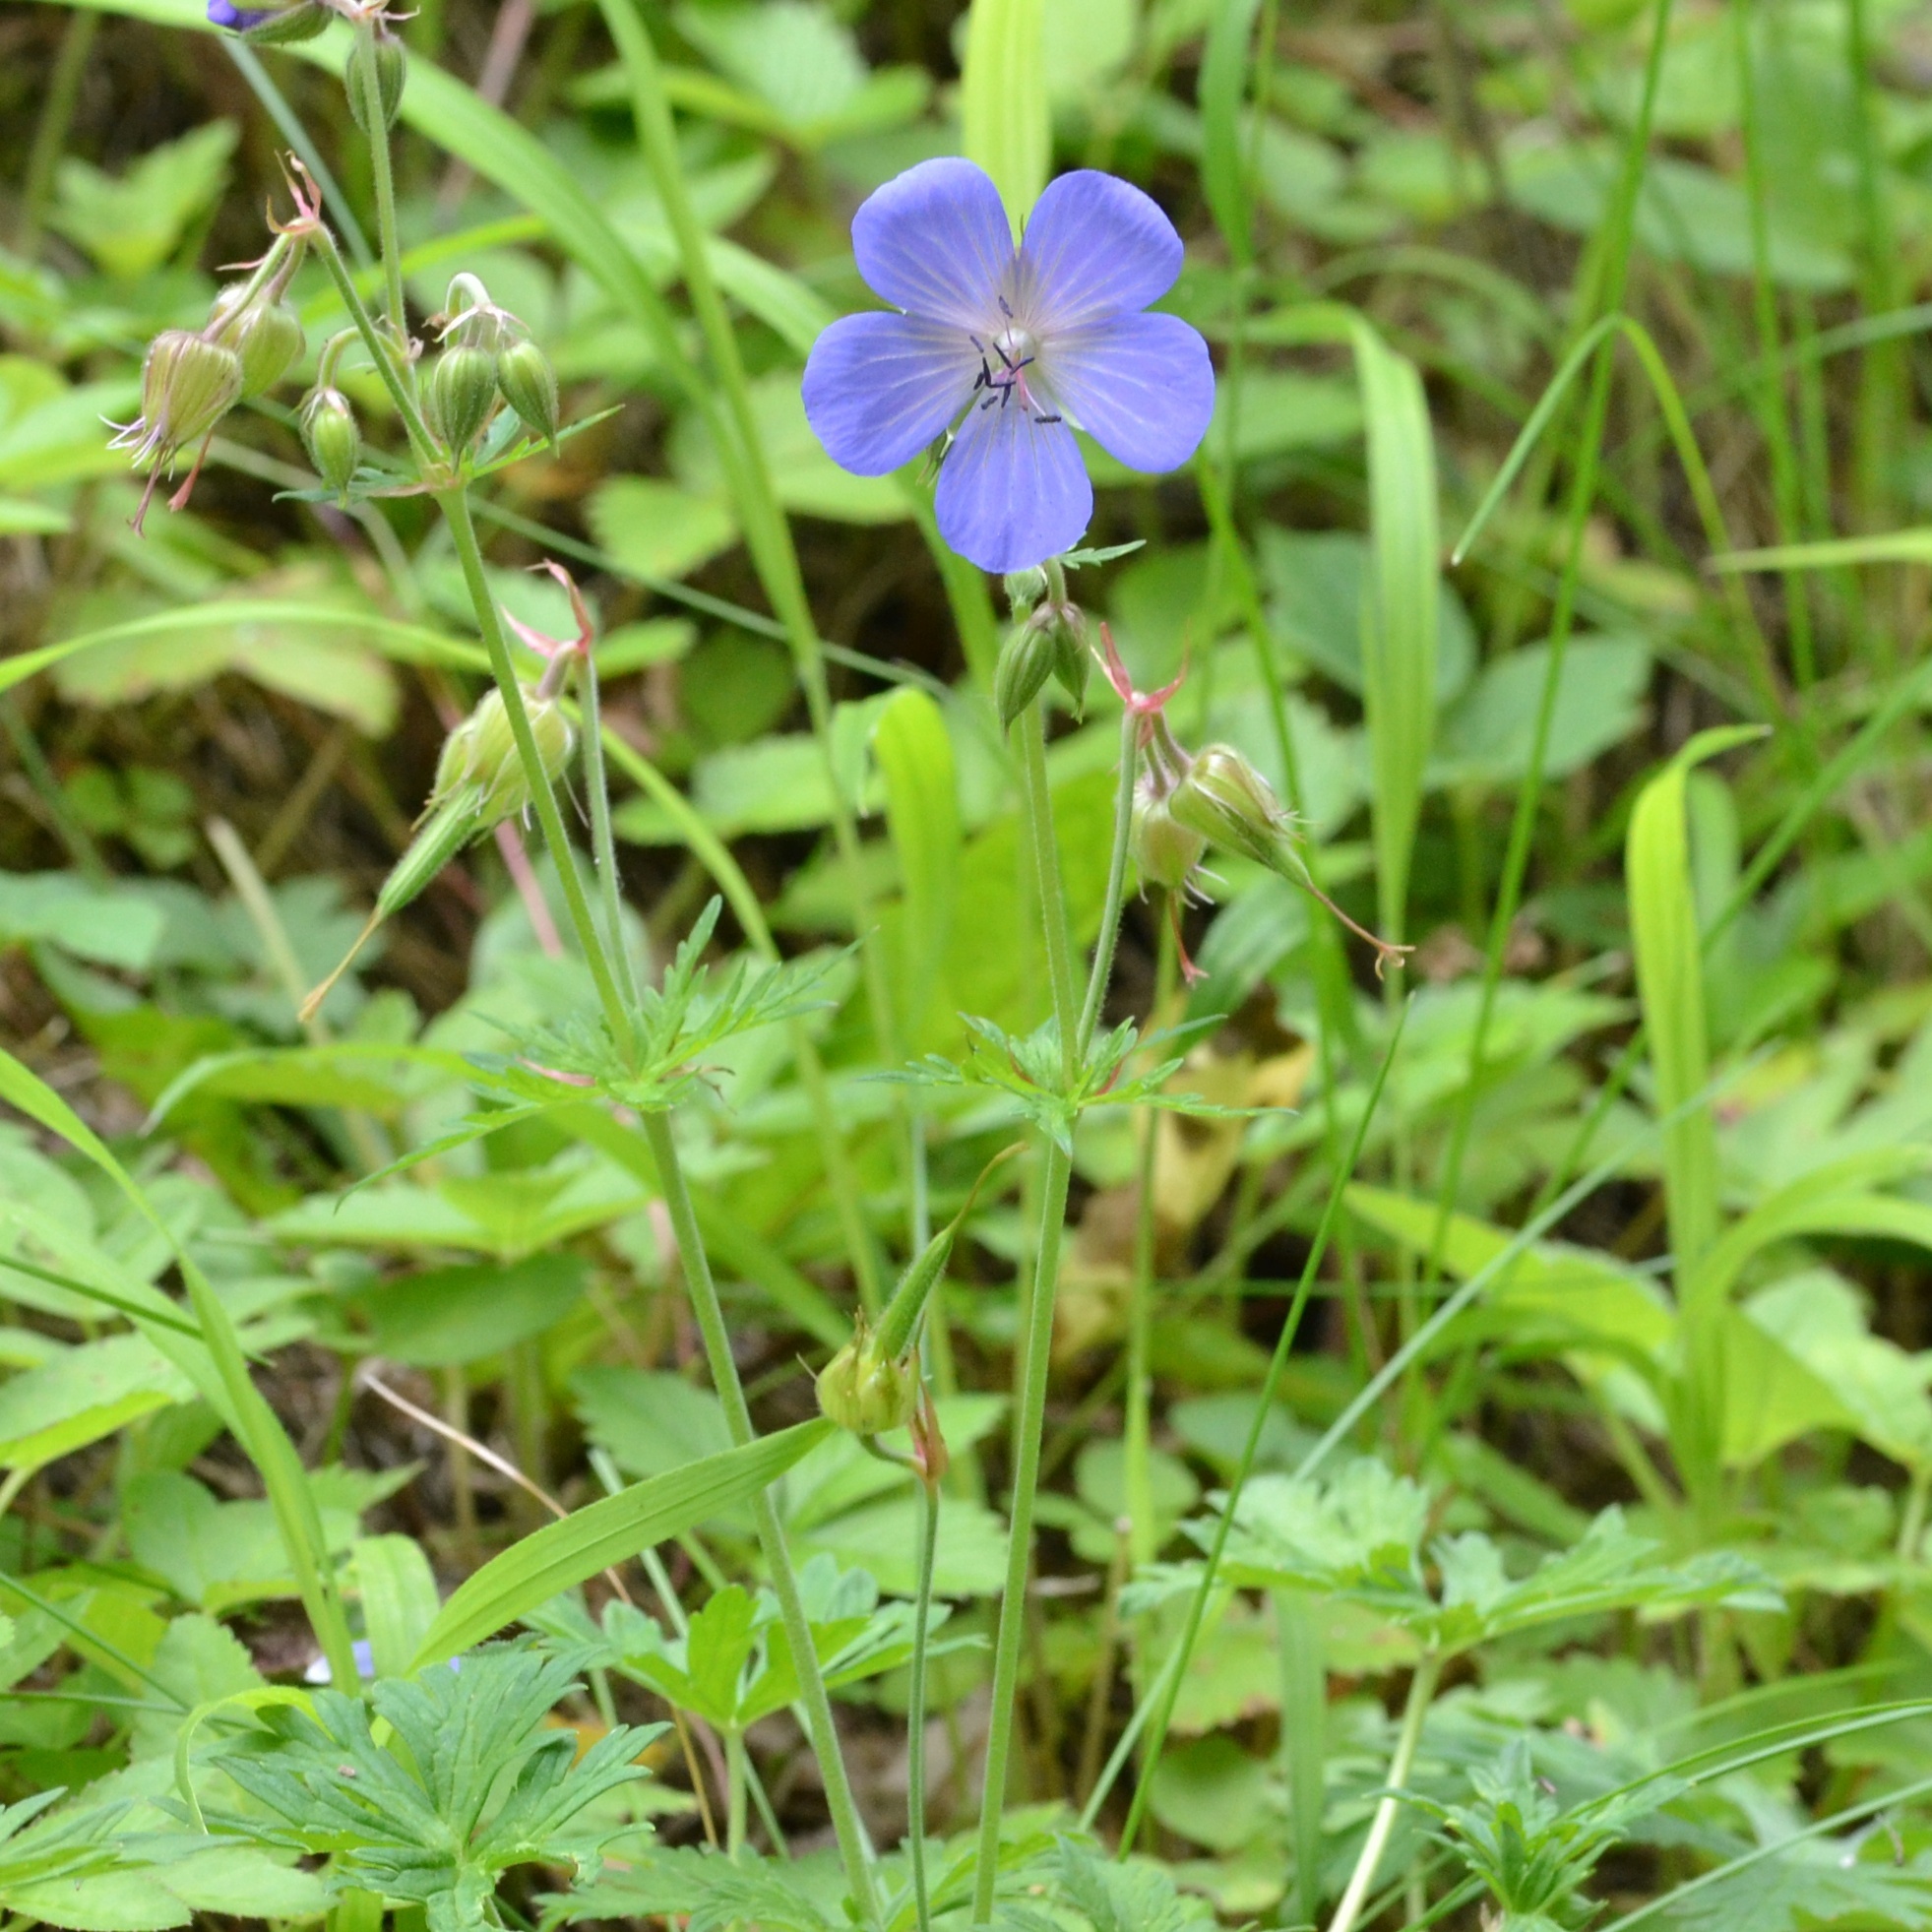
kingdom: Plantae
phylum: Tracheophyta
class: Magnoliopsida
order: Geraniales
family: Geraniaceae
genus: Geranium
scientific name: Geranium pratense
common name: Meadow crane's-bill
